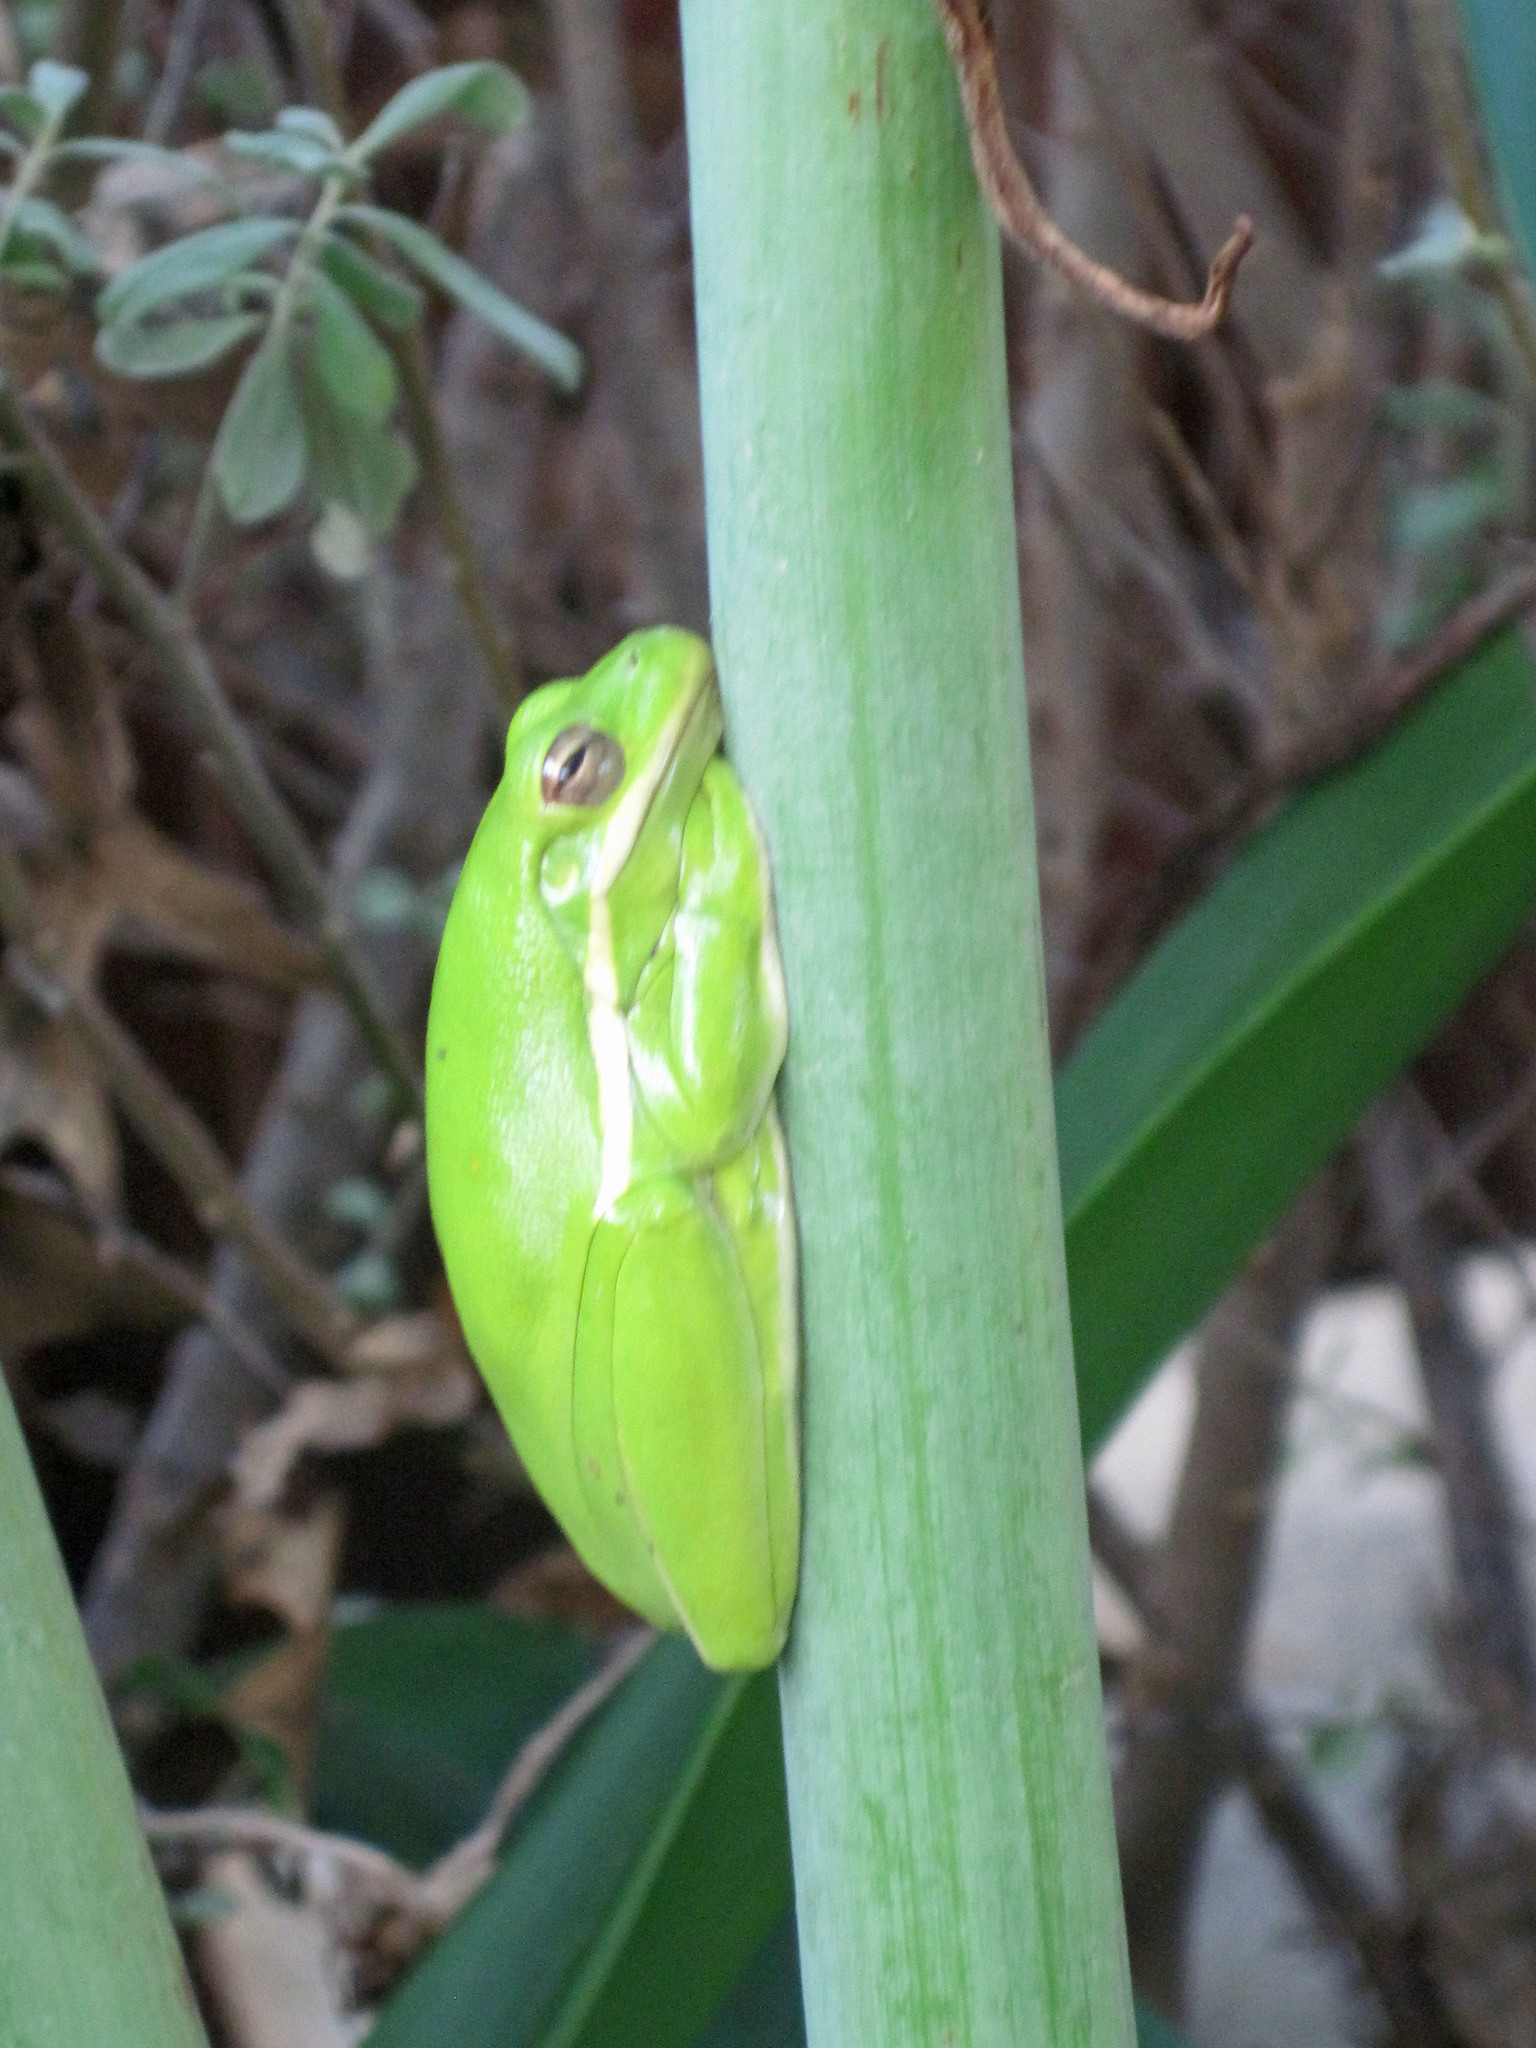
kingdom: Animalia
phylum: Chordata
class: Amphibia
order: Anura
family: Hylidae
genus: Dryophytes
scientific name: Dryophytes cinereus
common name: Green treefrog
